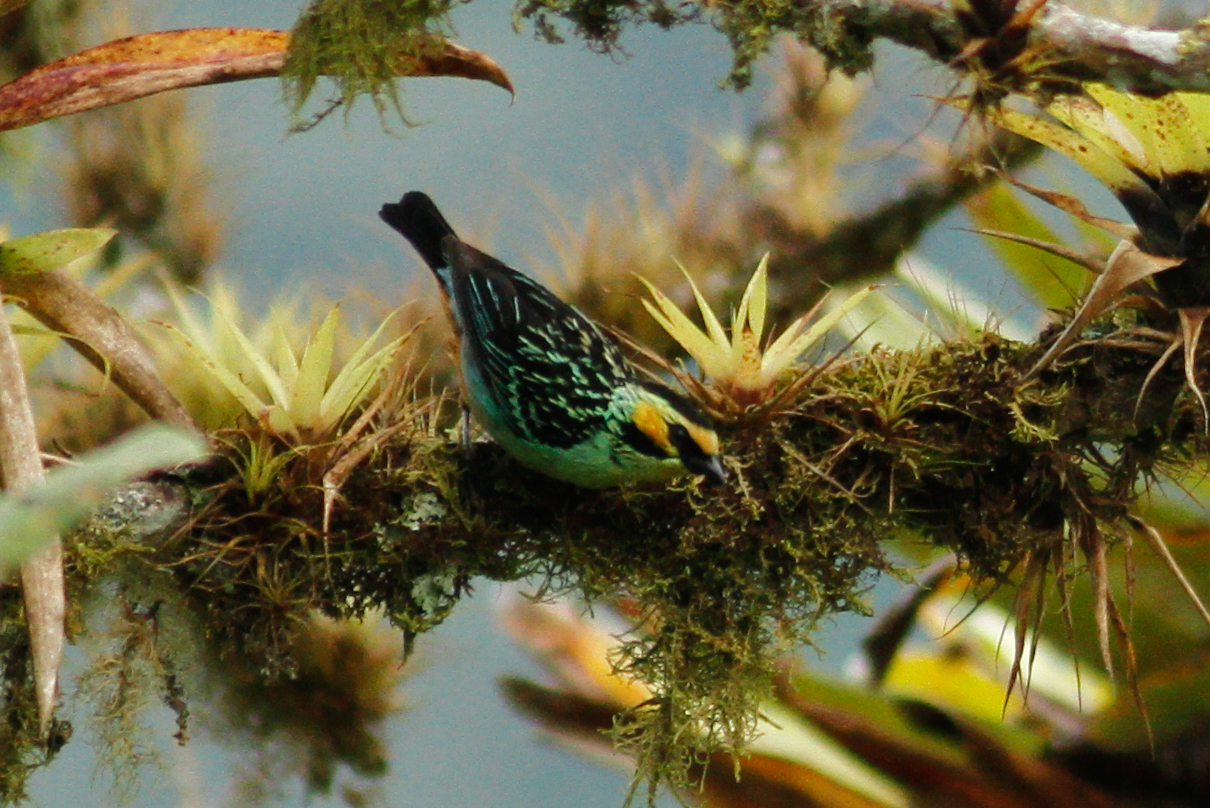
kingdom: Animalia
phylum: Chordata
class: Aves
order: Passeriformes
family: Thraupidae
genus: Tangara
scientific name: Tangara chrysotis
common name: Golden-eared tanager
